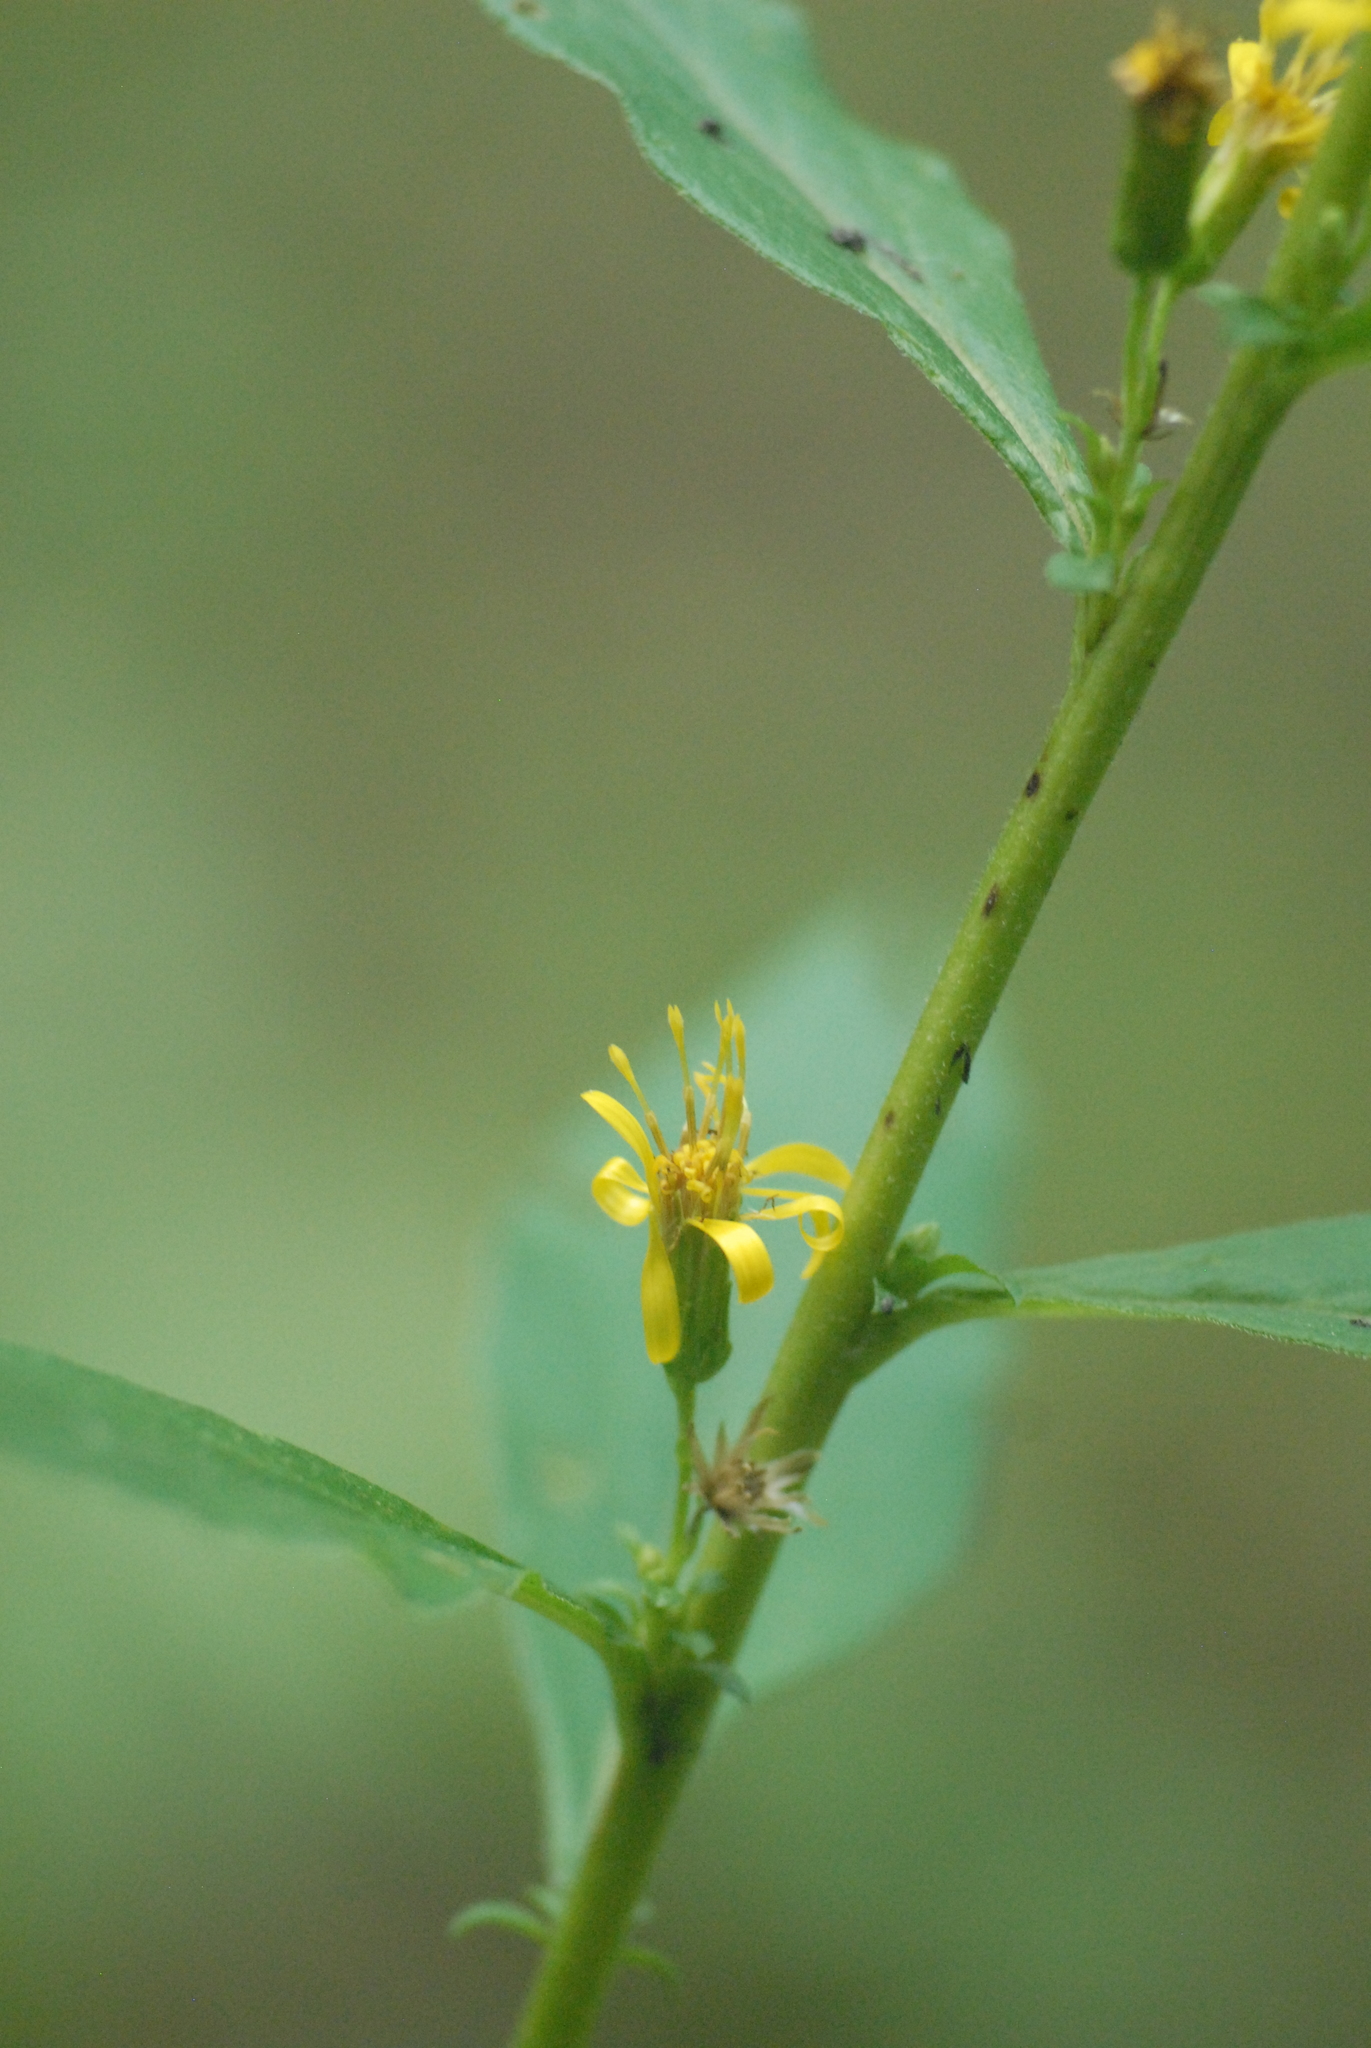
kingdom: Plantae
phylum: Tracheophyta
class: Magnoliopsida
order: Asterales
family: Asteraceae
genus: Solidago
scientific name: Solidago virgaurea
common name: Goldenrod
